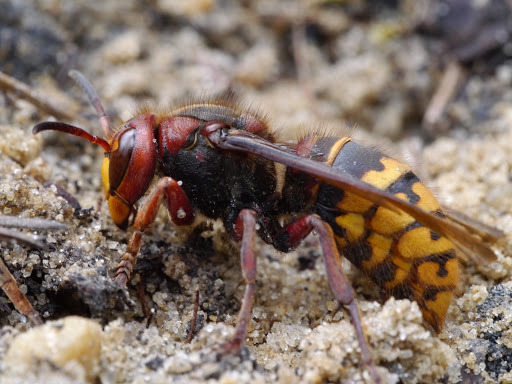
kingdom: Animalia
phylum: Arthropoda
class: Insecta
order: Hymenoptera
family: Vespidae
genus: Vespa
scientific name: Vespa crabro
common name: Hornet
